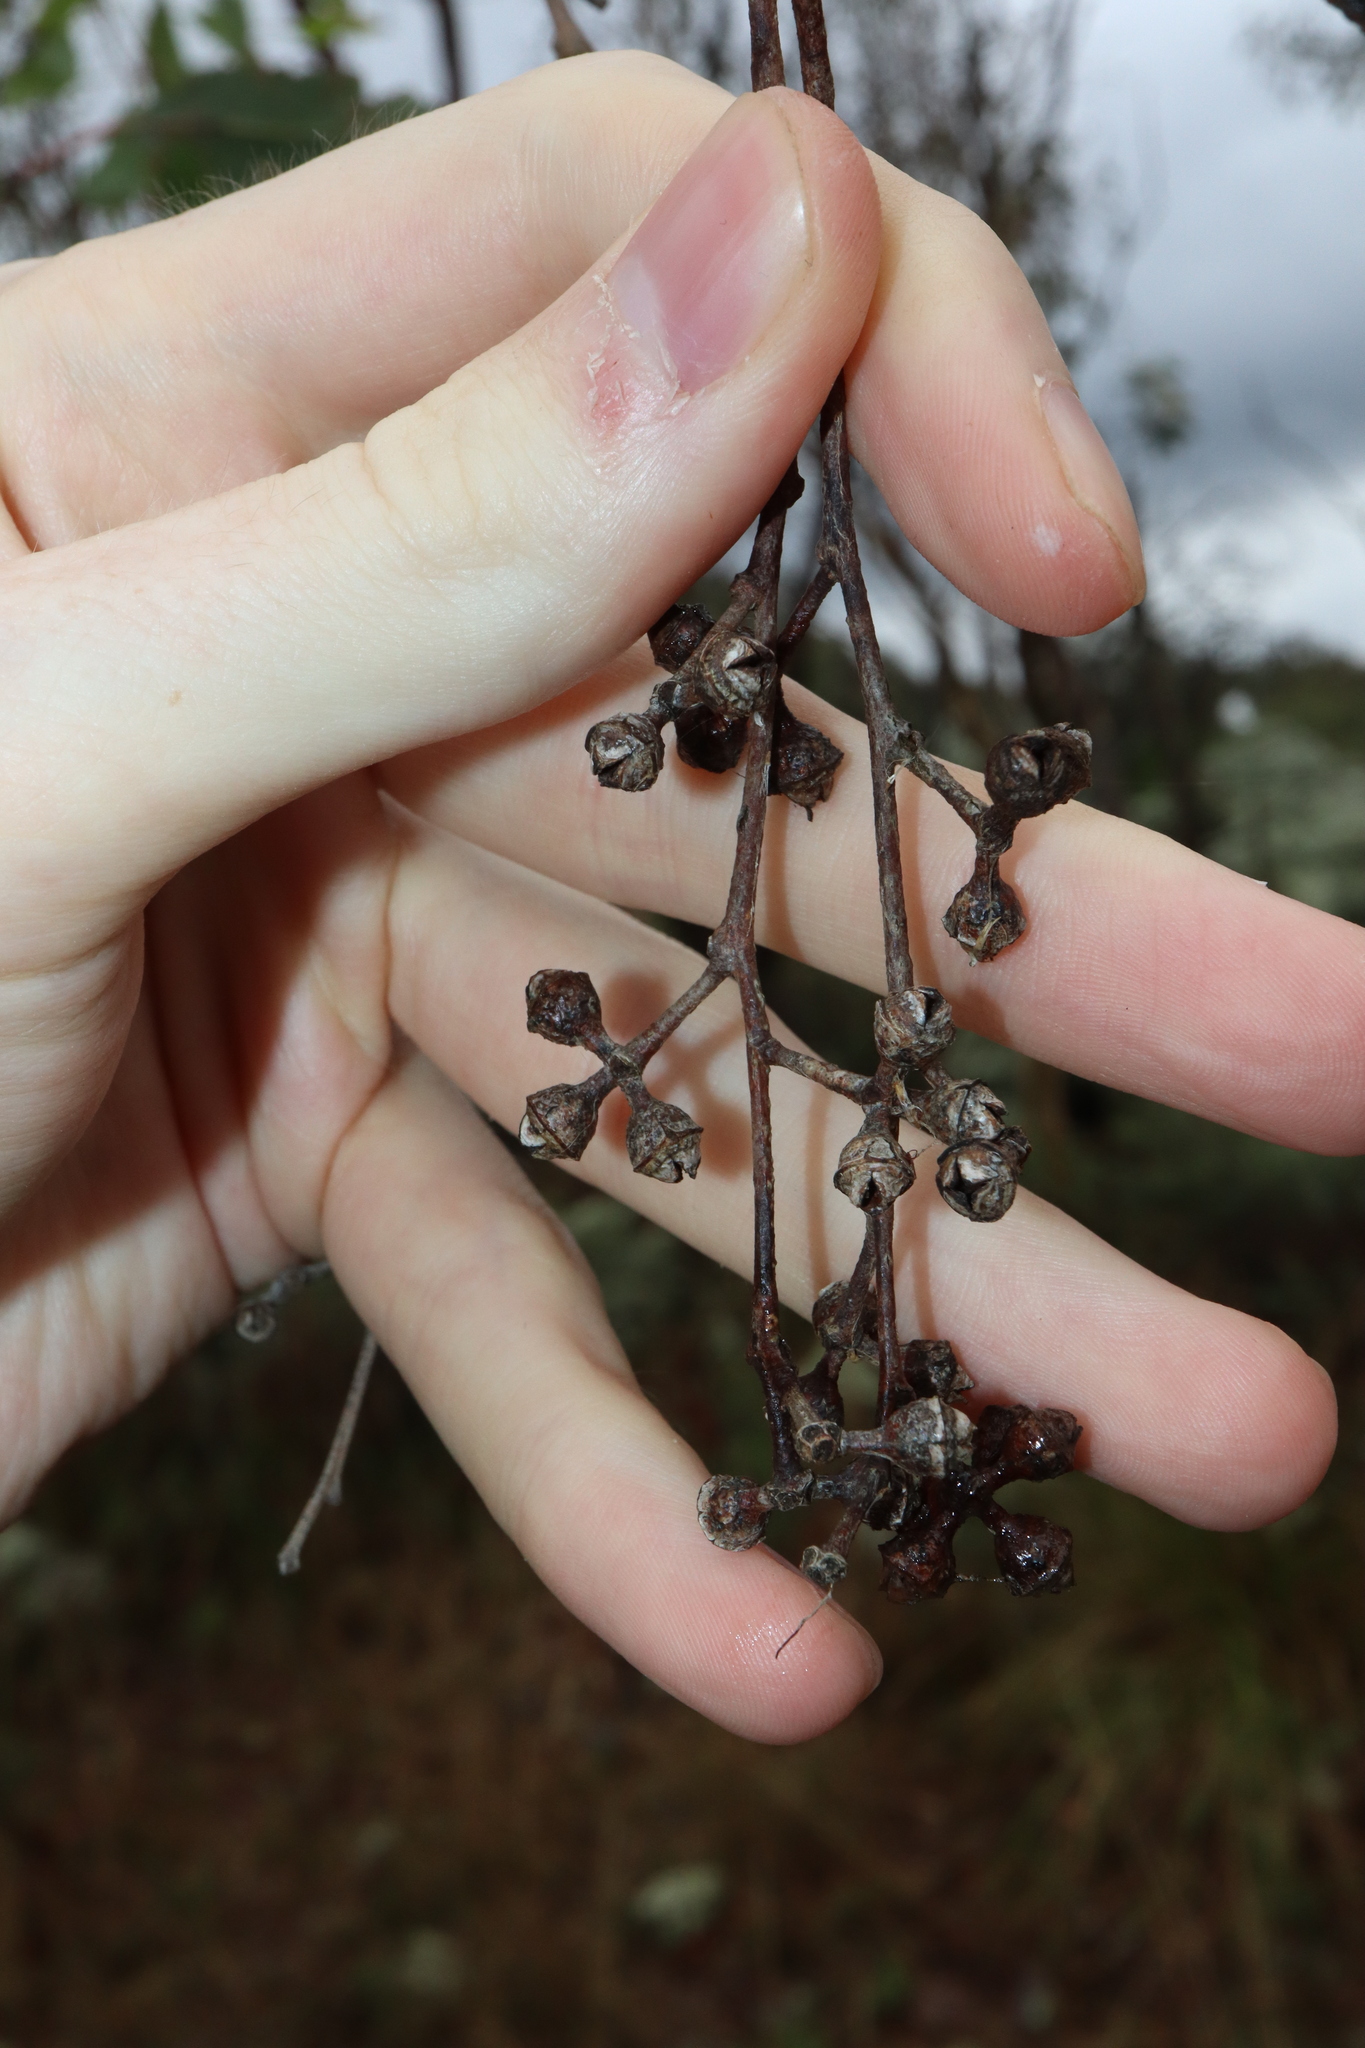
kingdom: Plantae
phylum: Tracheophyta
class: Magnoliopsida
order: Myrtales
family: Myrtaceae
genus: Eucalyptus
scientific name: Eucalyptus dealbata
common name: Red gum
